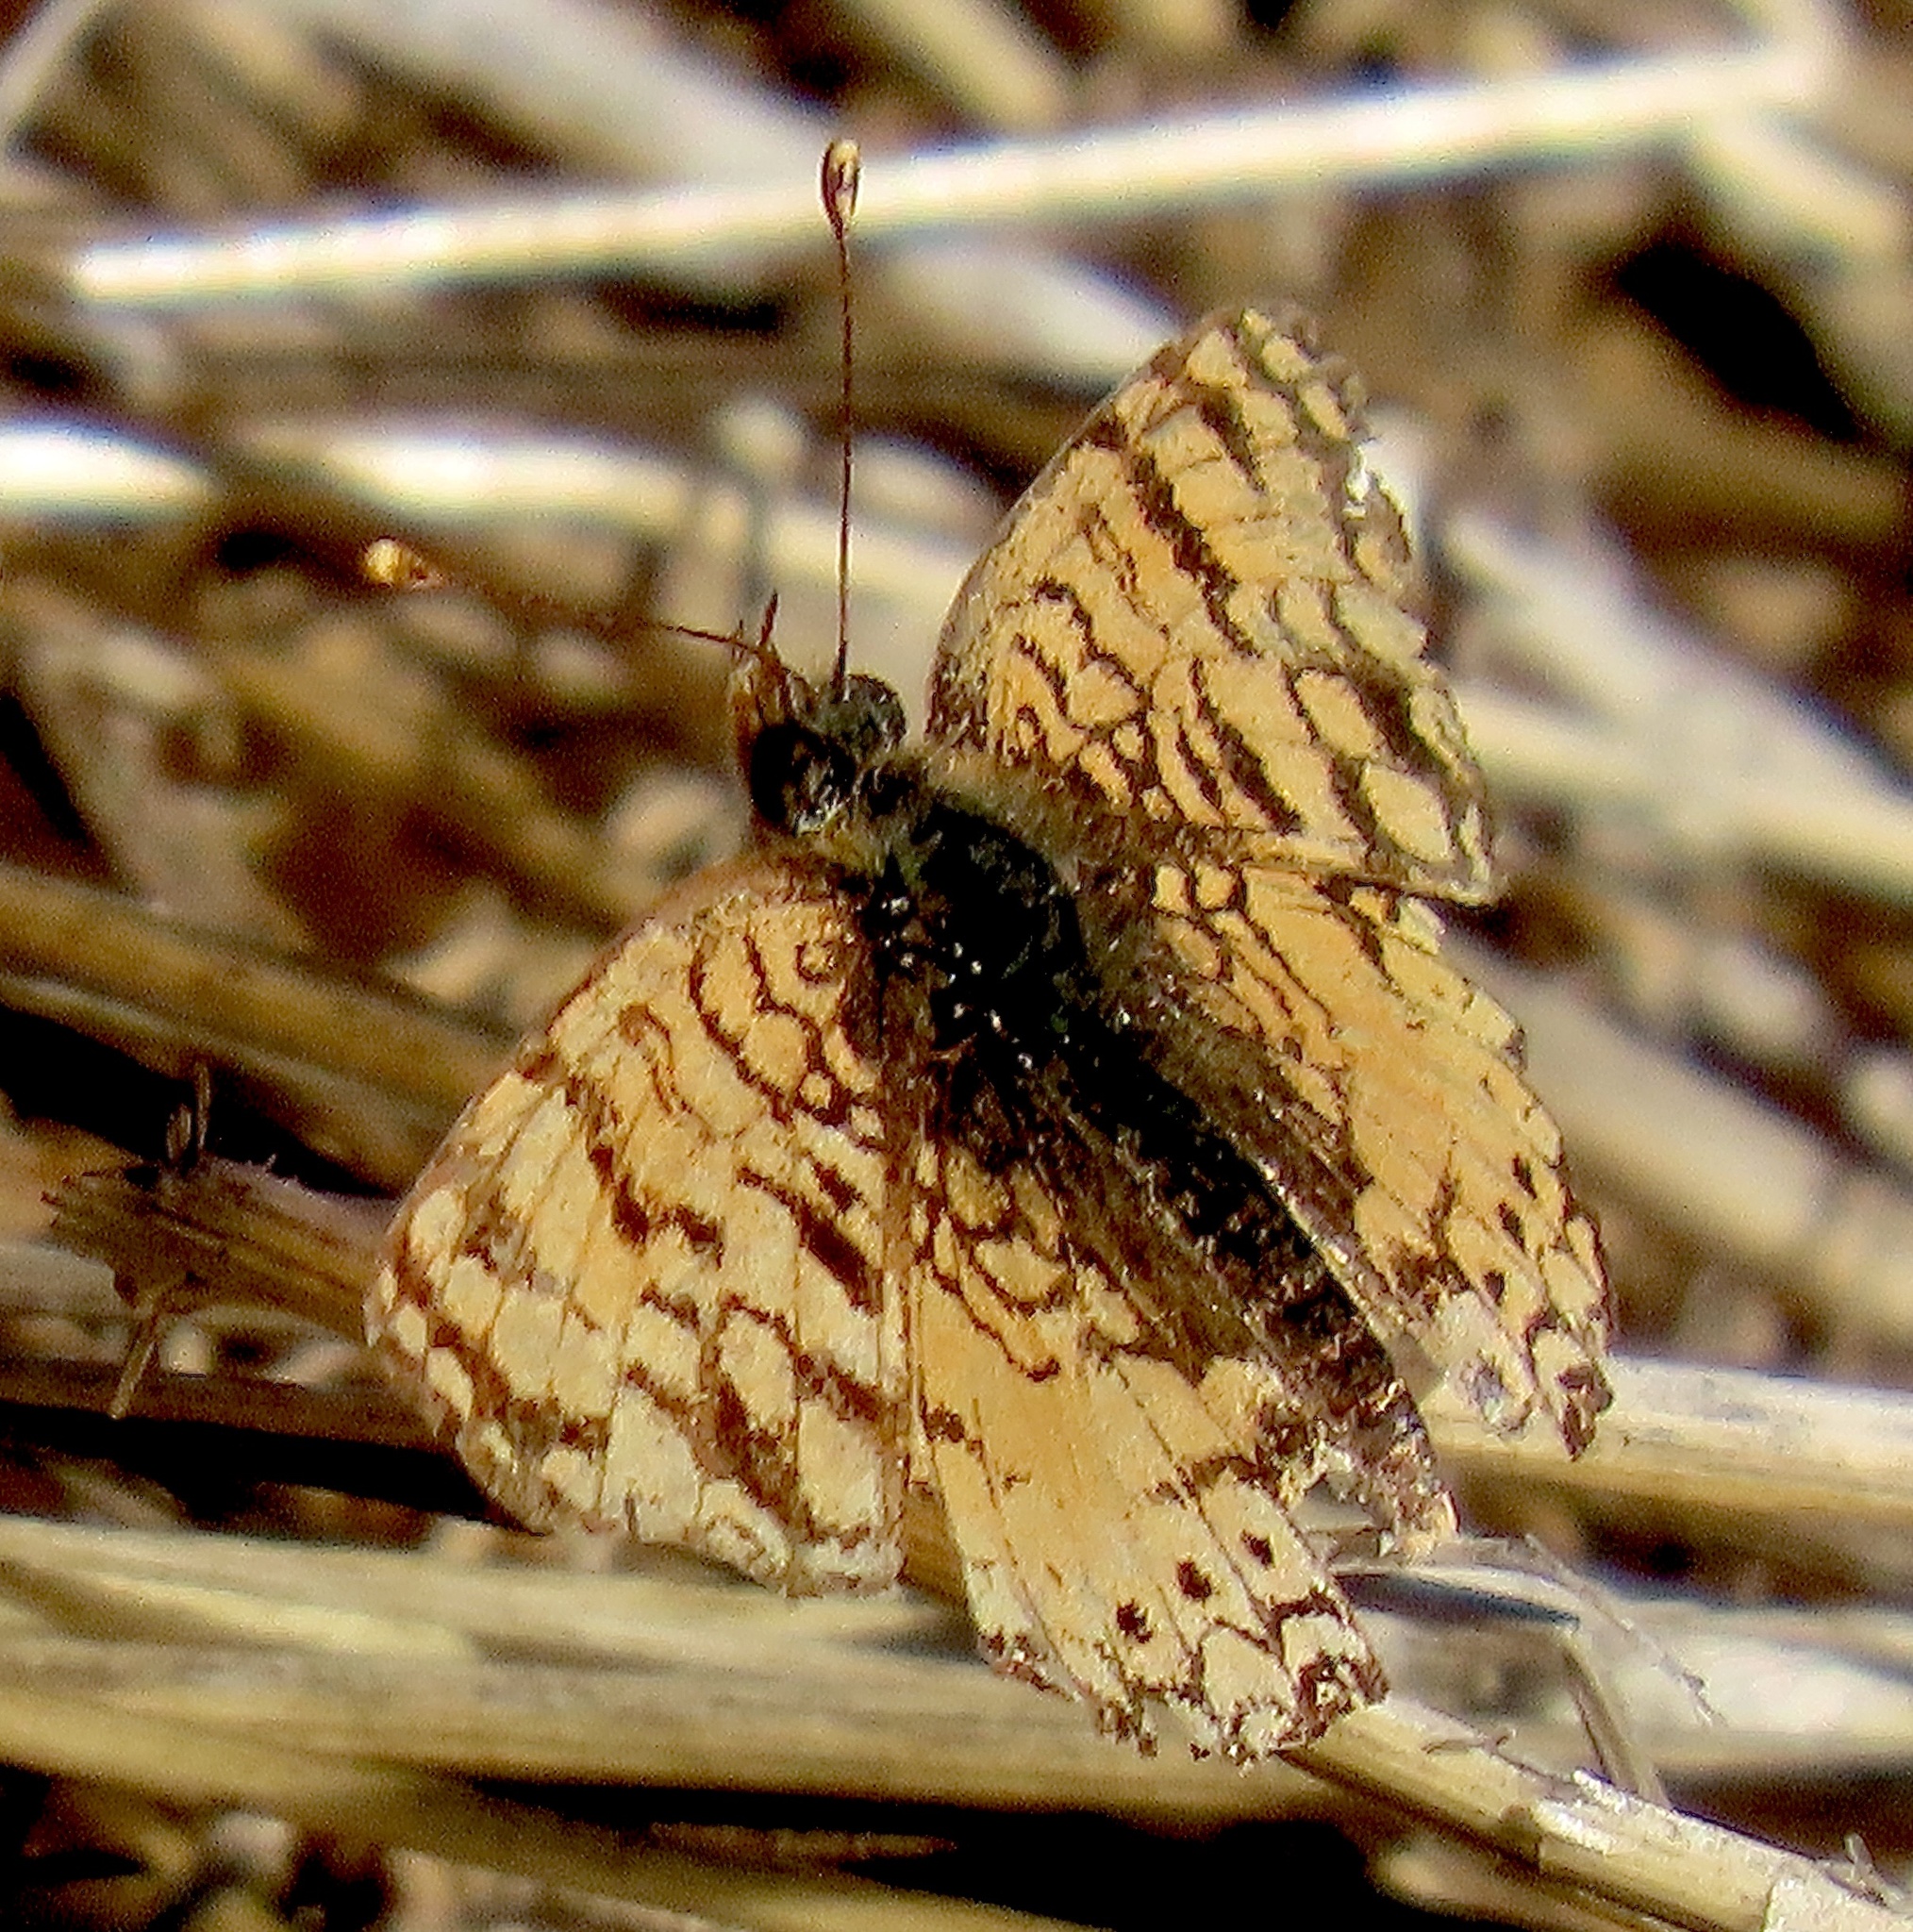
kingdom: Animalia
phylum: Arthropoda
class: Insecta
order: Lepidoptera
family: Nymphalidae
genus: Eresia
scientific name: Eresia aveyrona
